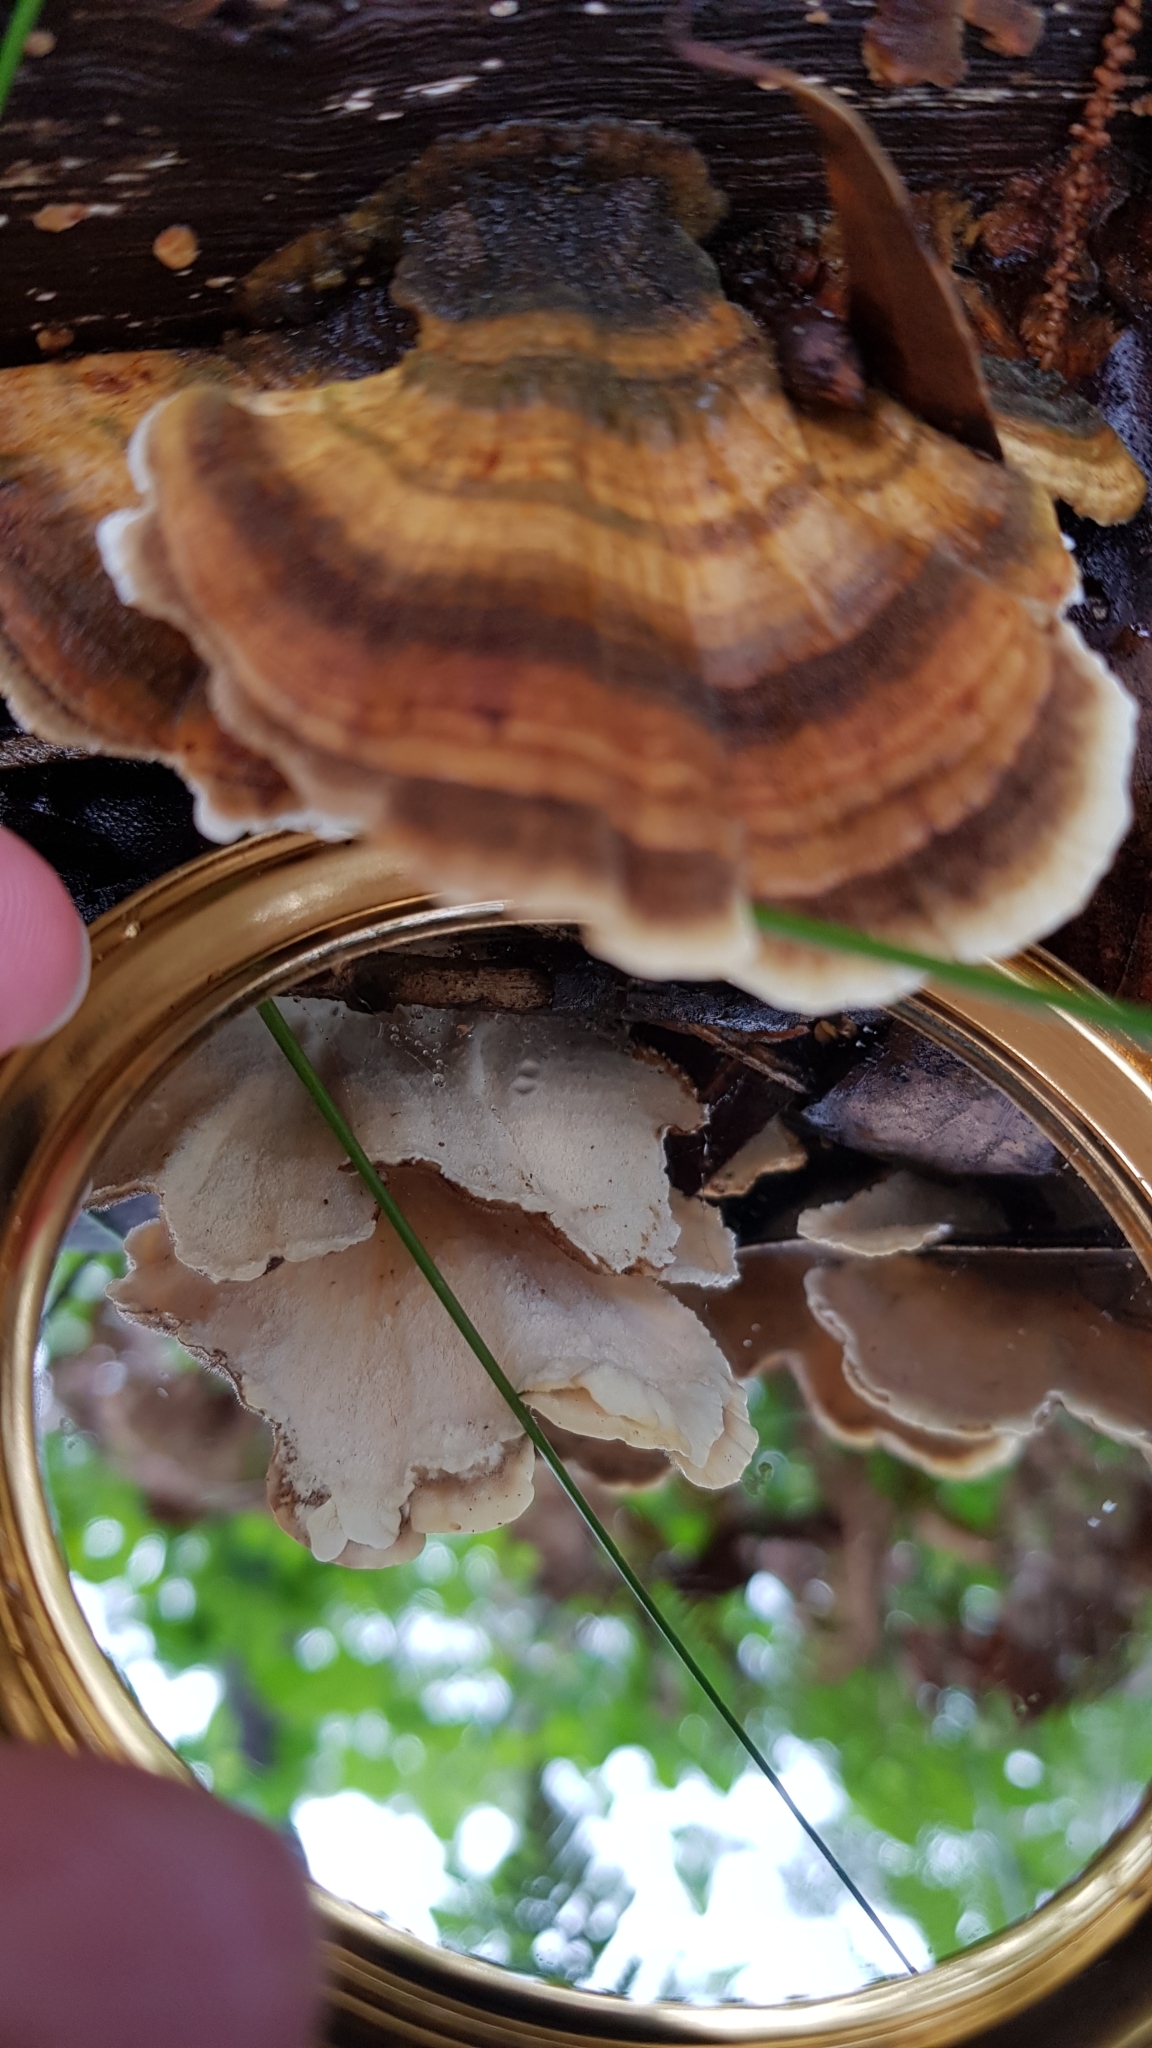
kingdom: Fungi
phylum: Basidiomycota
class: Agaricomycetes
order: Polyporales
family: Polyporaceae
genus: Trametes
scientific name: Trametes versicolor
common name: Turkeytail
